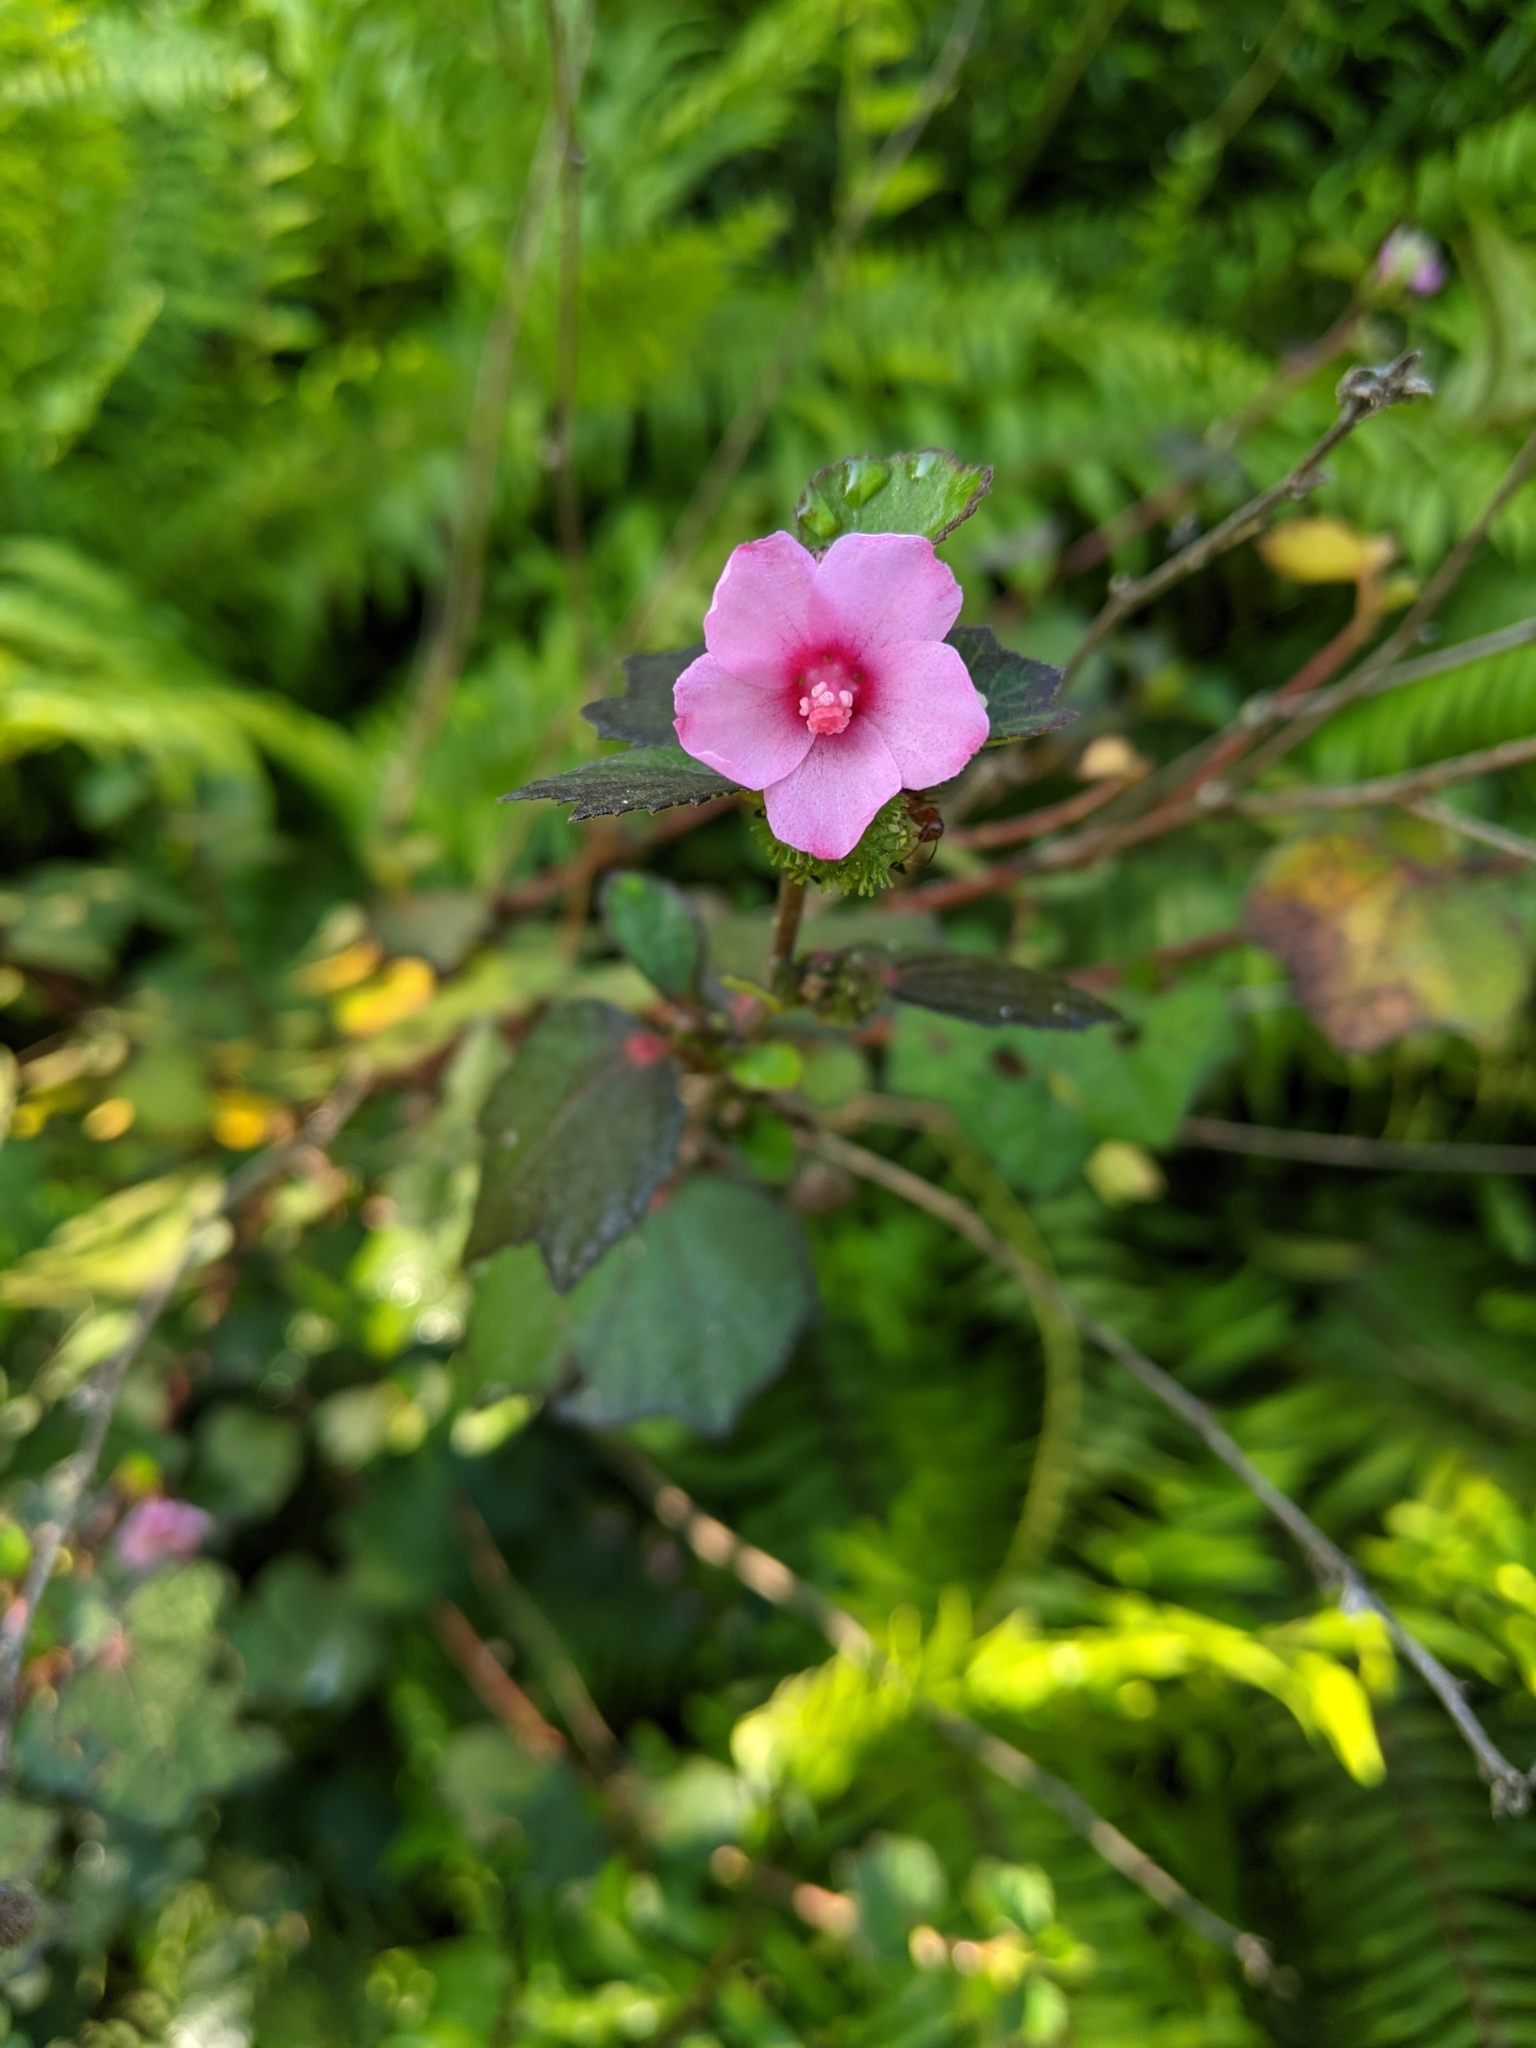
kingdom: Plantae
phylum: Tracheophyta
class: Magnoliopsida
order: Malvales
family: Malvaceae
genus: Urena
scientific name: Urena lobata
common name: Caesarweed
